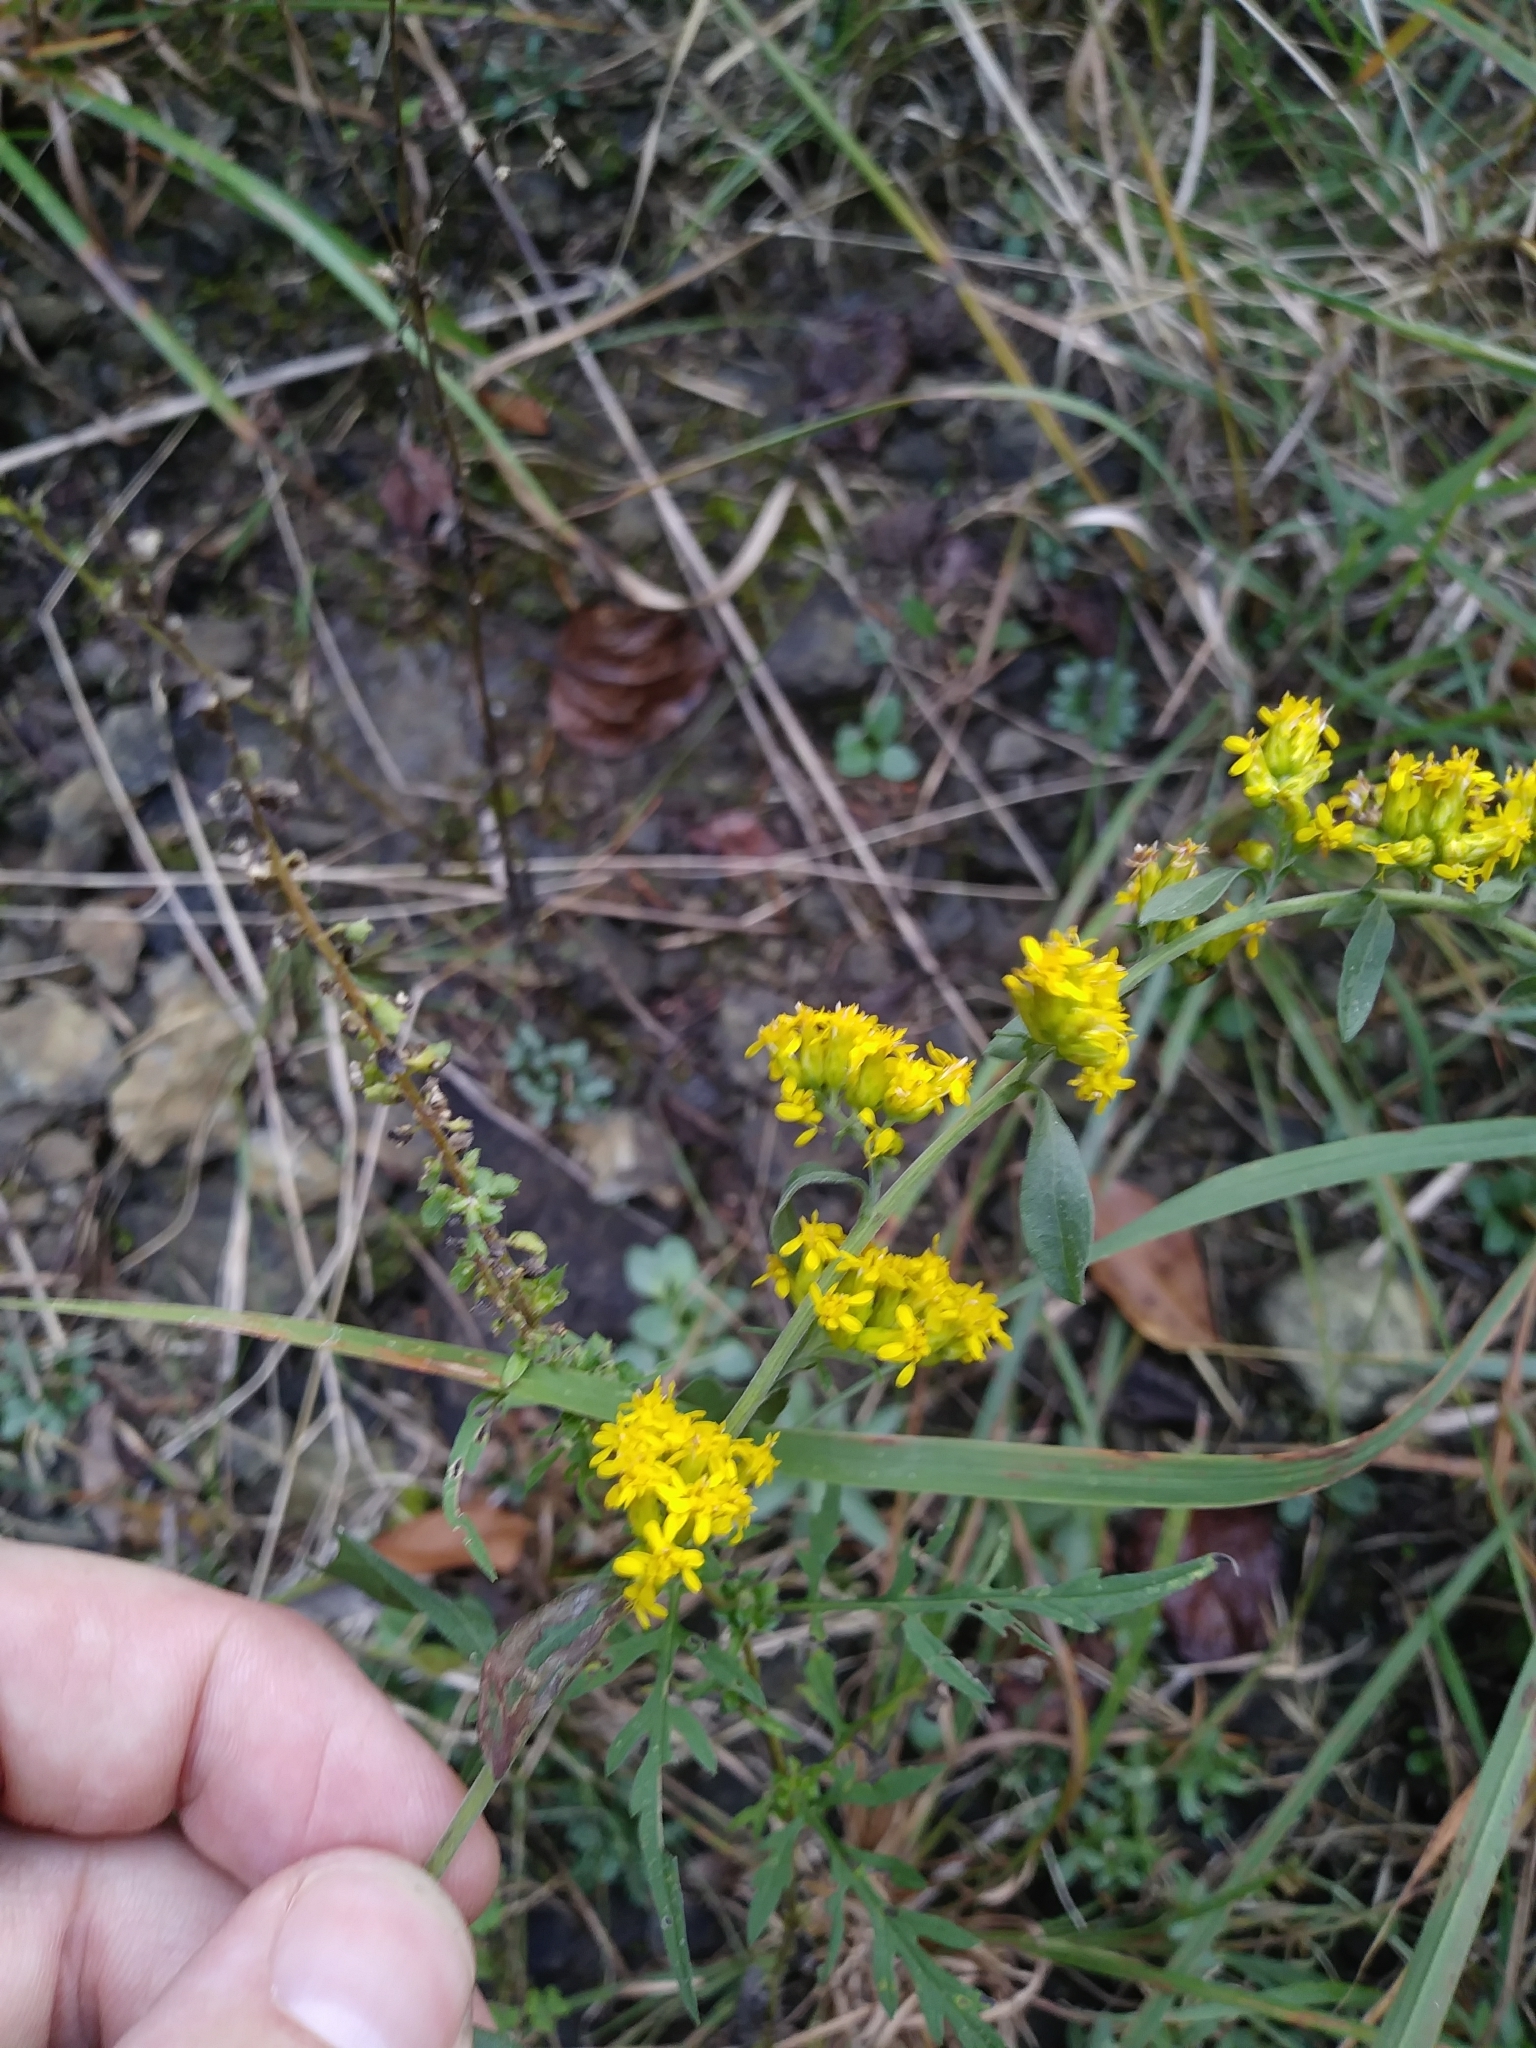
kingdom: Plantae
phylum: Tracheophyta
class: Magnoliopsida
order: Asterales
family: Asteraceae
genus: Solidago
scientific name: Solidago nemoralis
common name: Grey goldenrod
